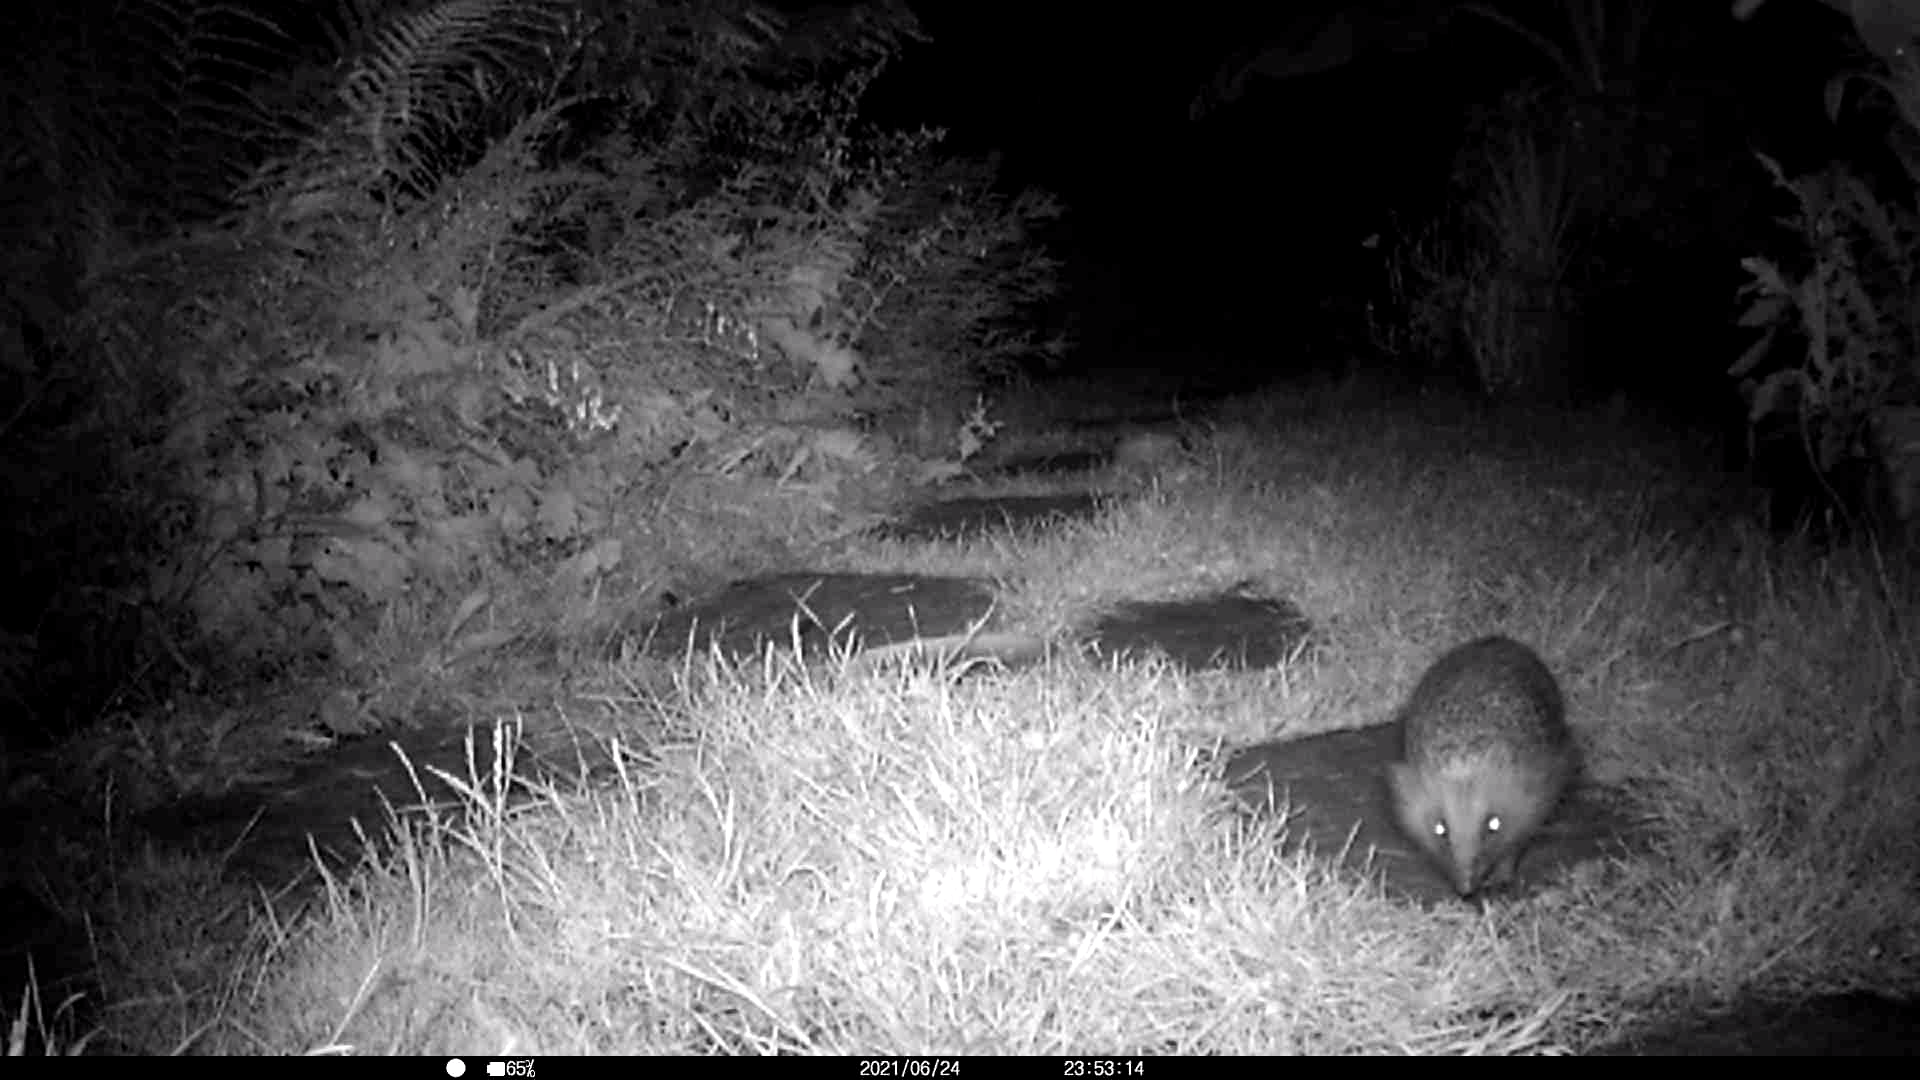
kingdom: Animalia
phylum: Chordata
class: Mammalia
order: Erinaceomorpha
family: Erinaceidae
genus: Erinaceus
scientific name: Erinaceus europaeus
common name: West european hedgehog
